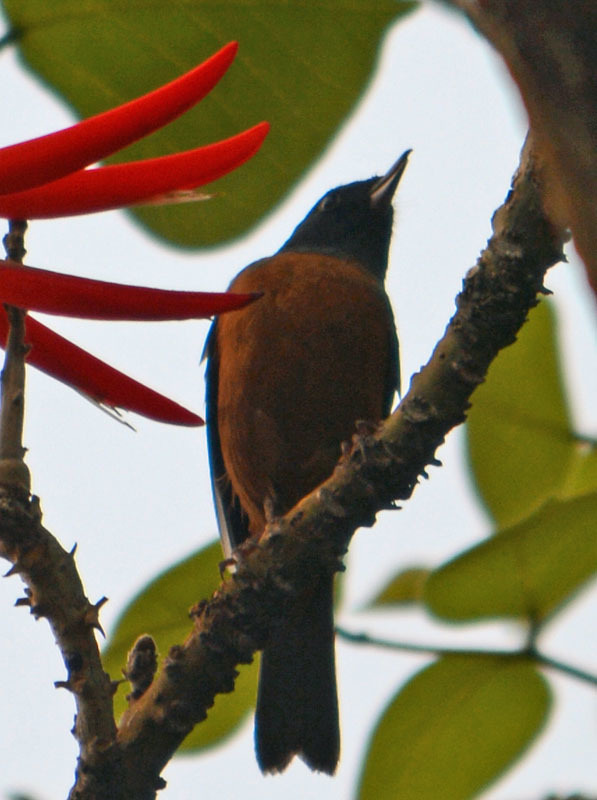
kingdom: Animalia
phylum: Chordata
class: Aves
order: Passeriformes
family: Thraupidae
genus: Diglossa
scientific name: Diglossa baritula
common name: Cinnamon-bellied flowerpiercer
